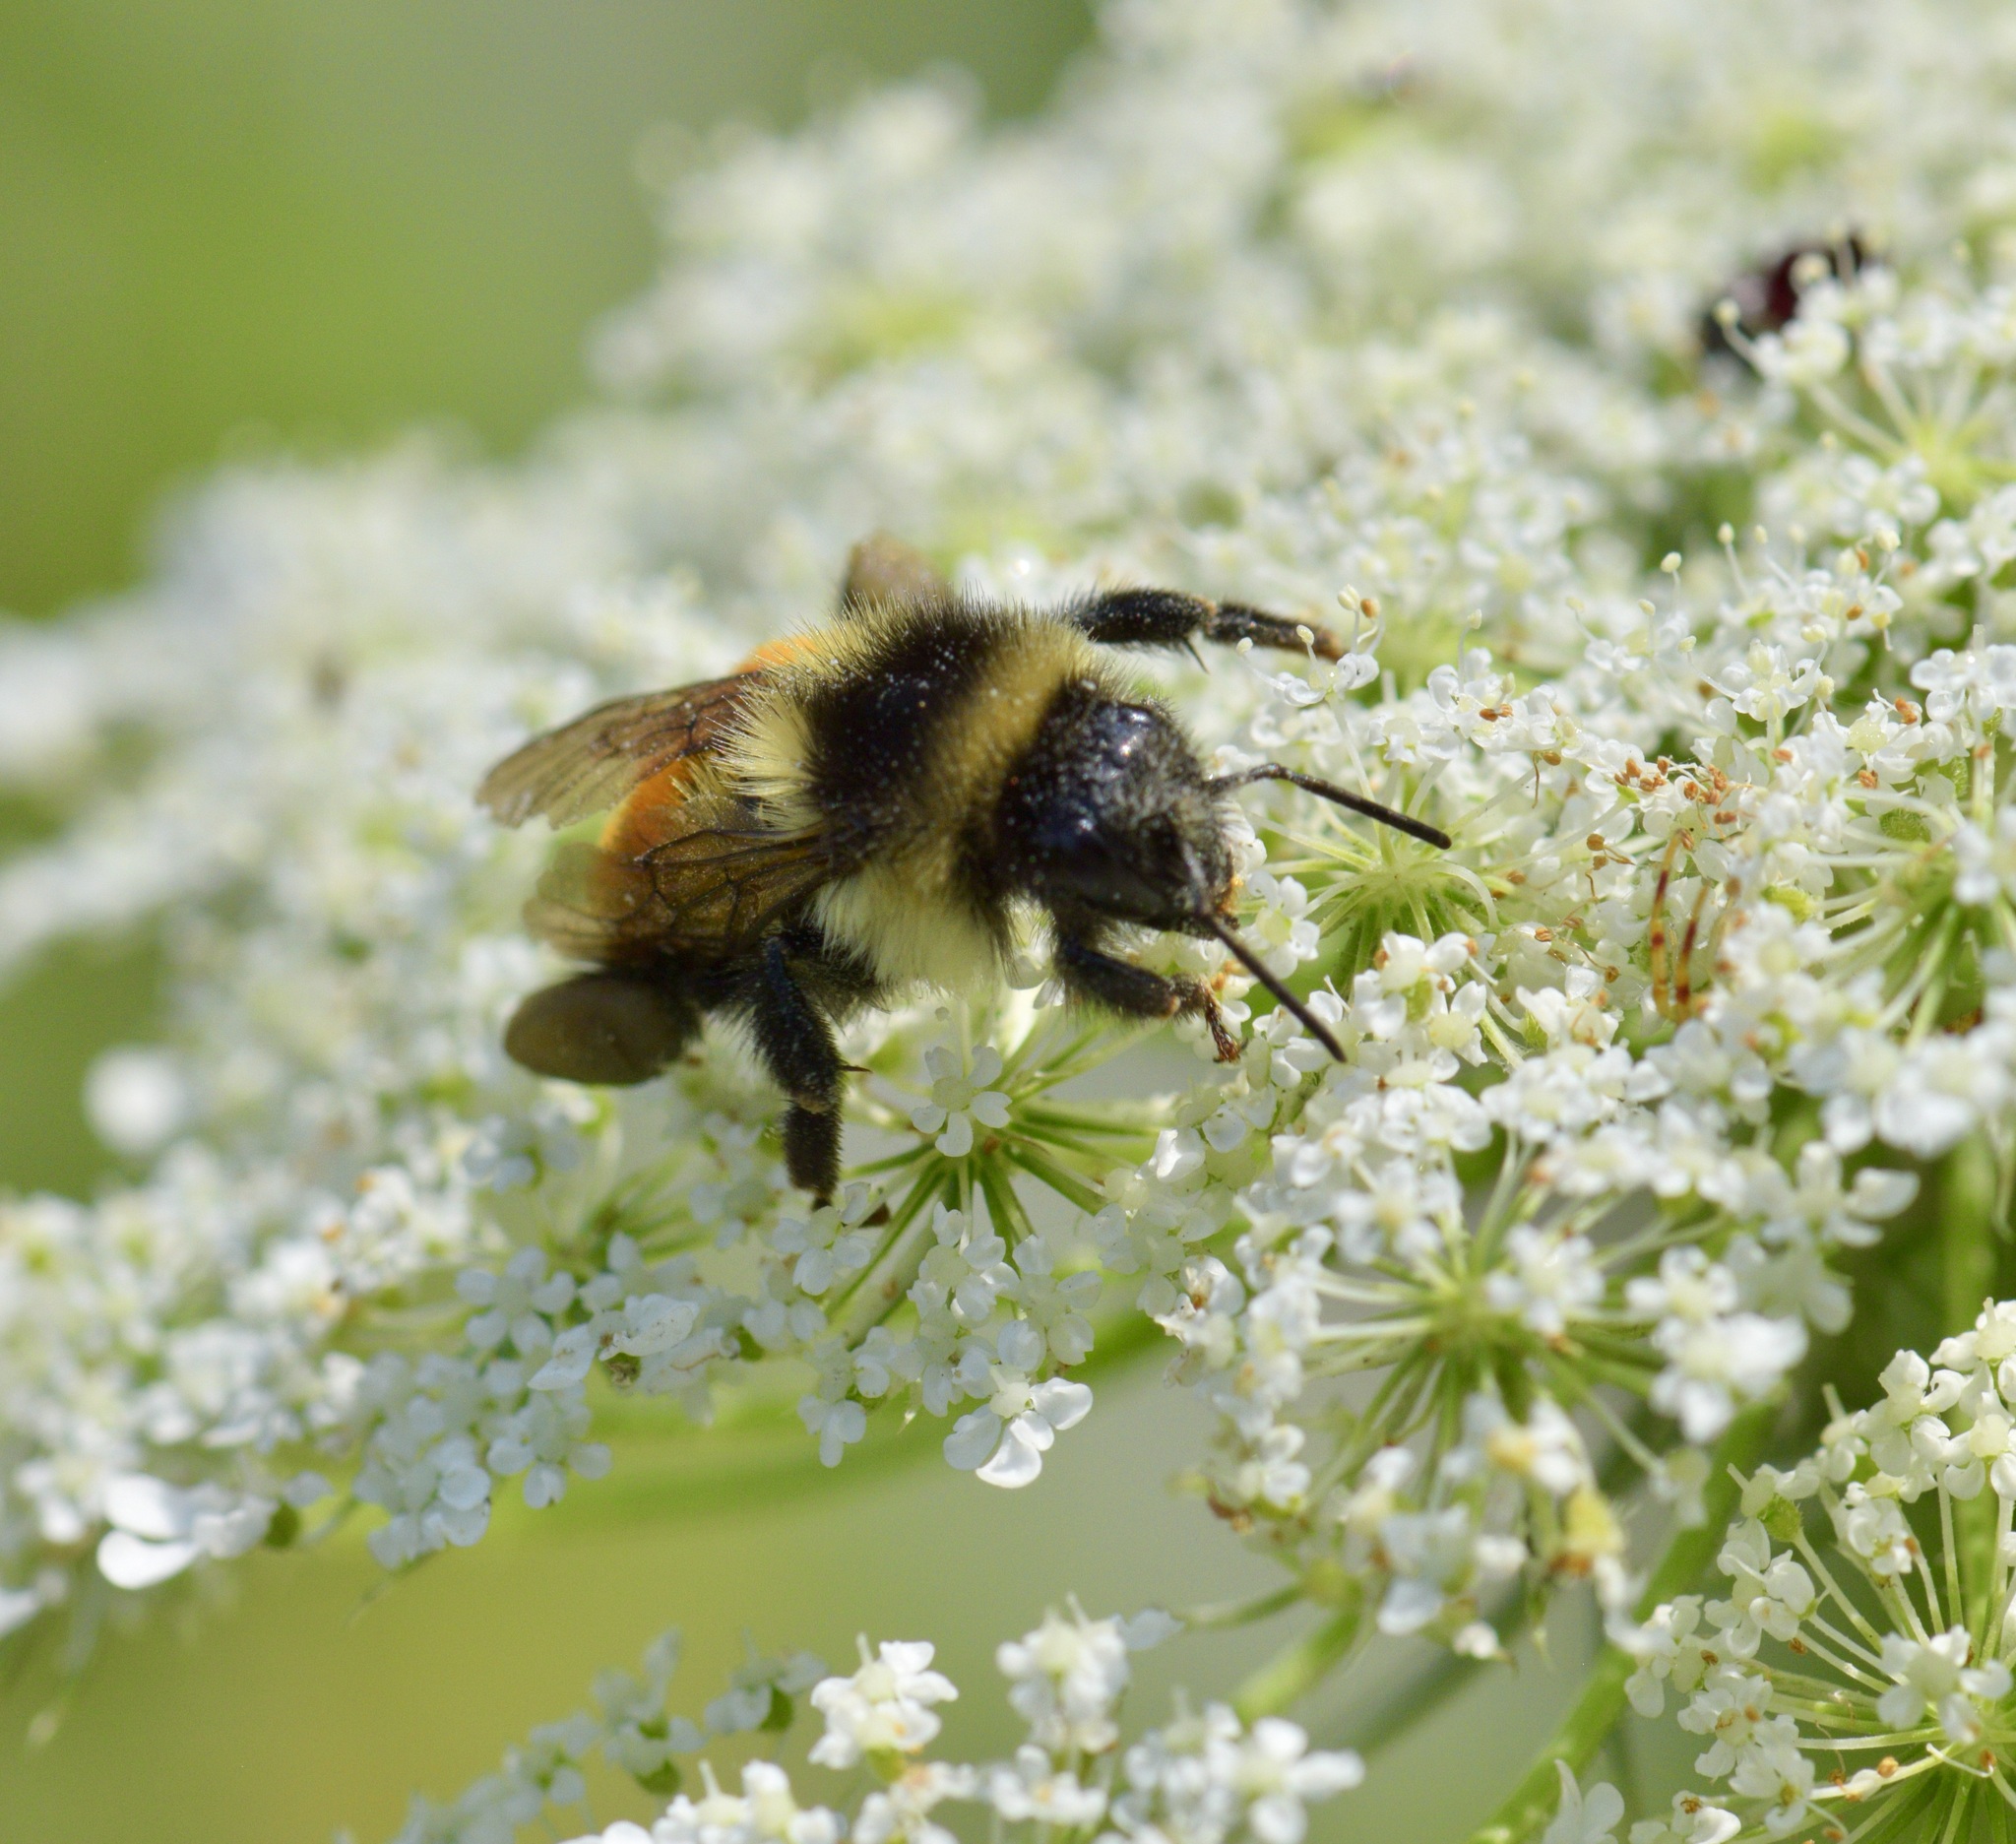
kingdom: Animalia
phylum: Arthropoda
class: Insecta
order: Hymenoptera
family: Apidae
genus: Bombus
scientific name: Bombus ternarius
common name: Tri-colored bumble bee
